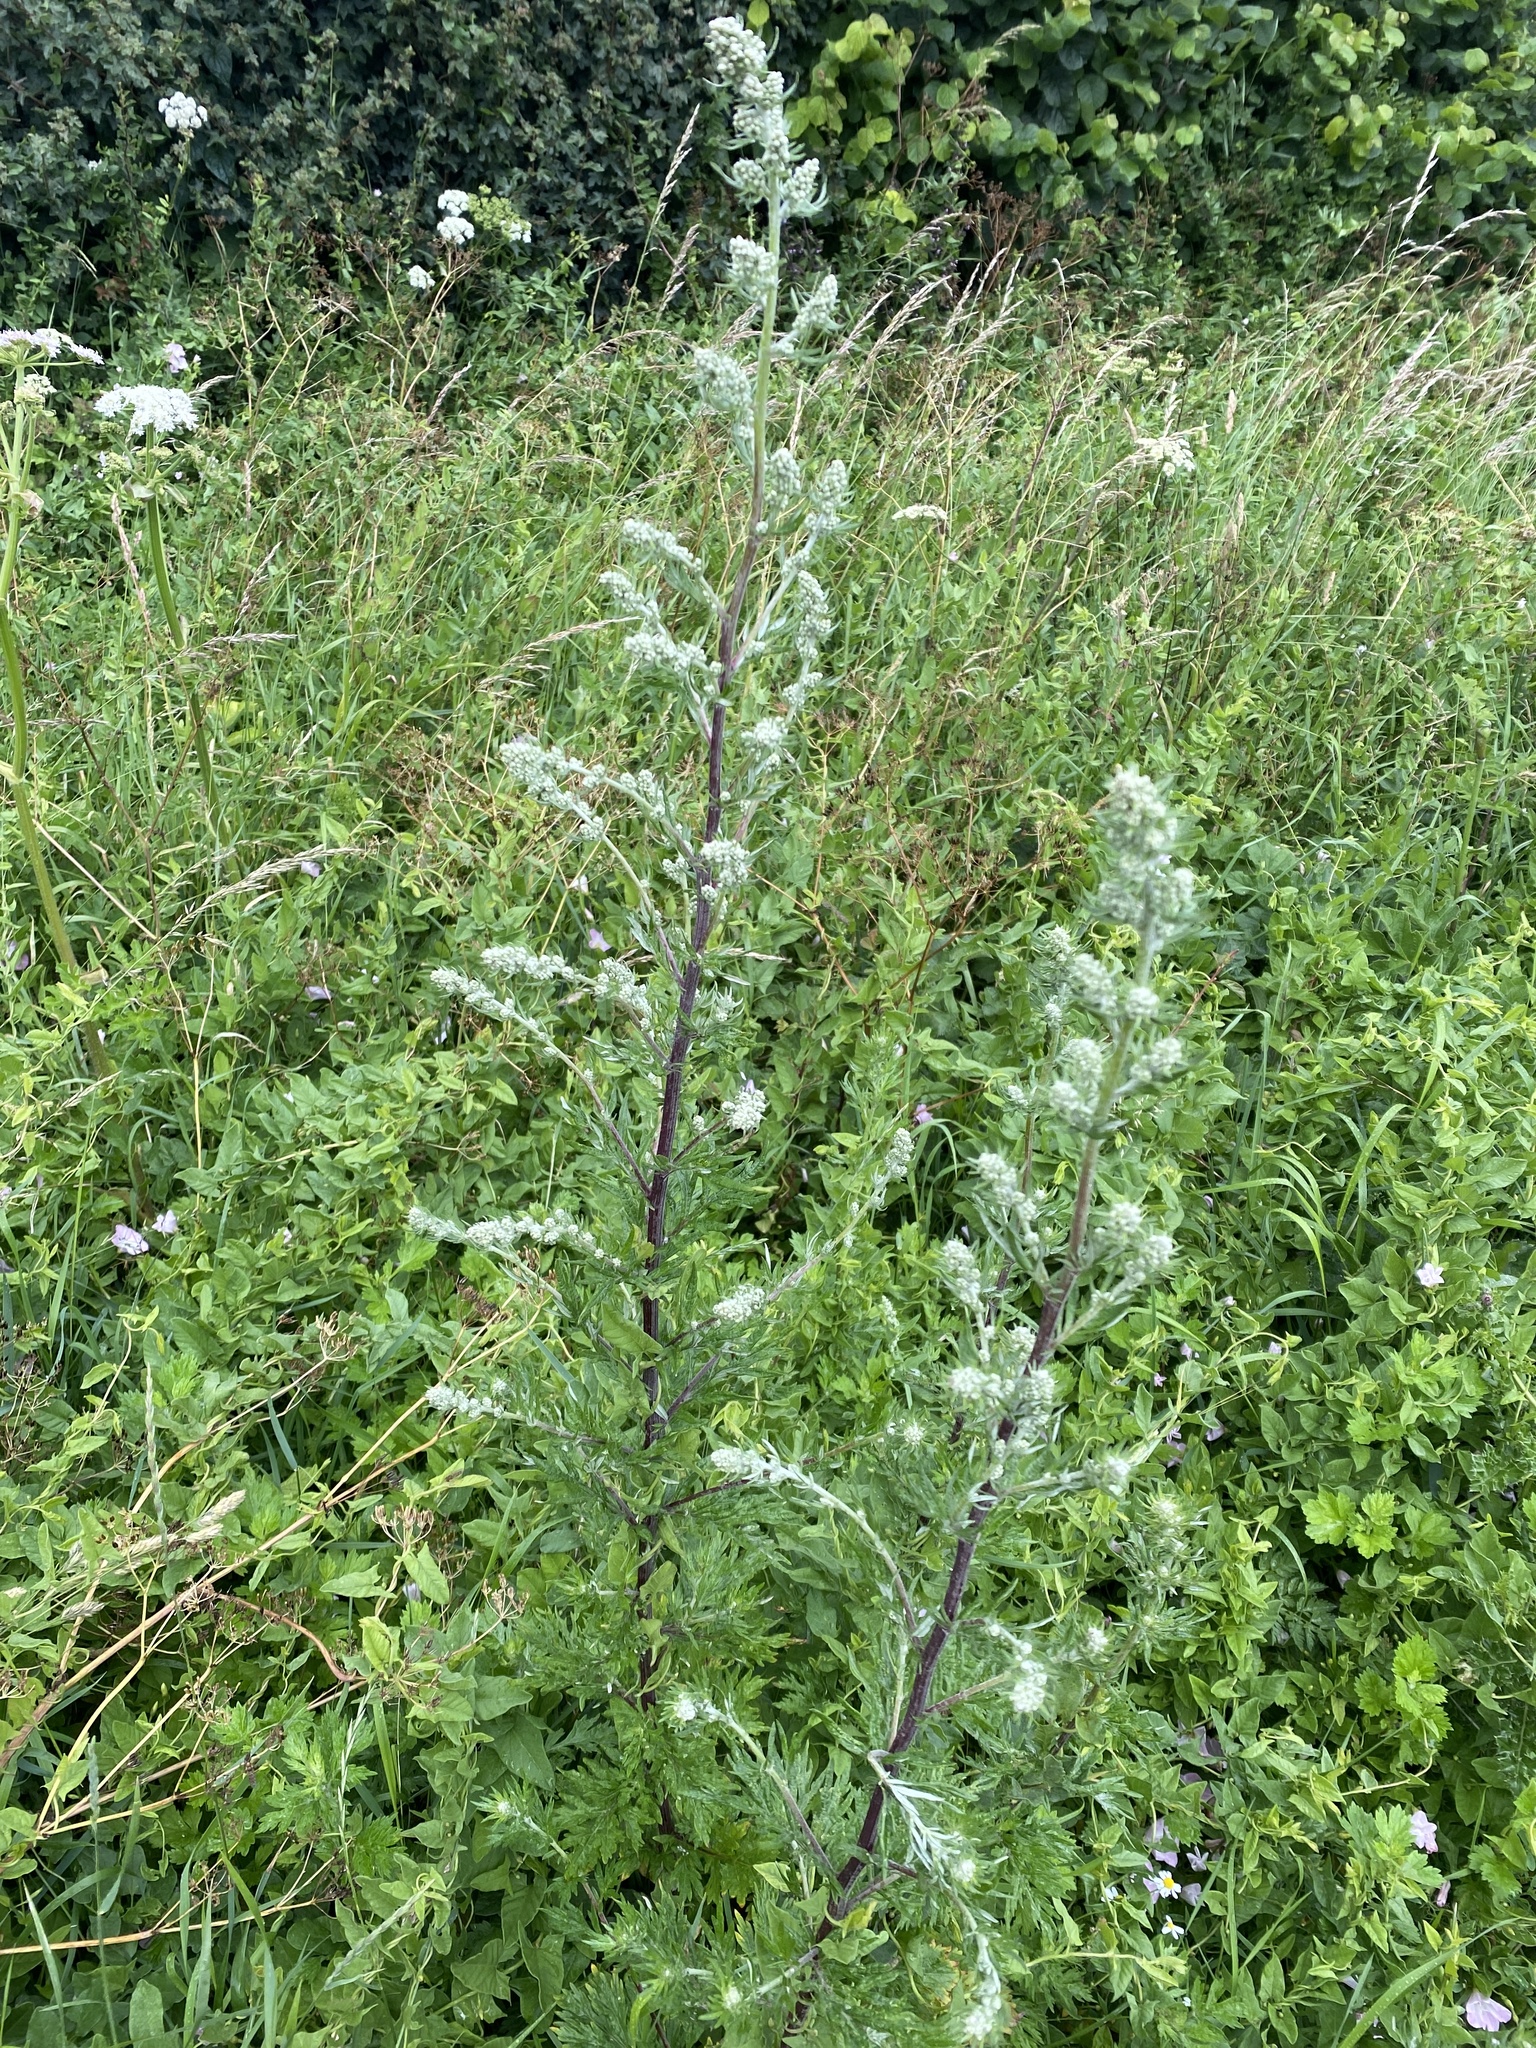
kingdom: Plantae
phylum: Tracheophyta
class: Magnoliopsida
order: Asterales
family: Asteraceae
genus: Artemisia
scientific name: Artemisia vulgaris
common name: Mugwort
